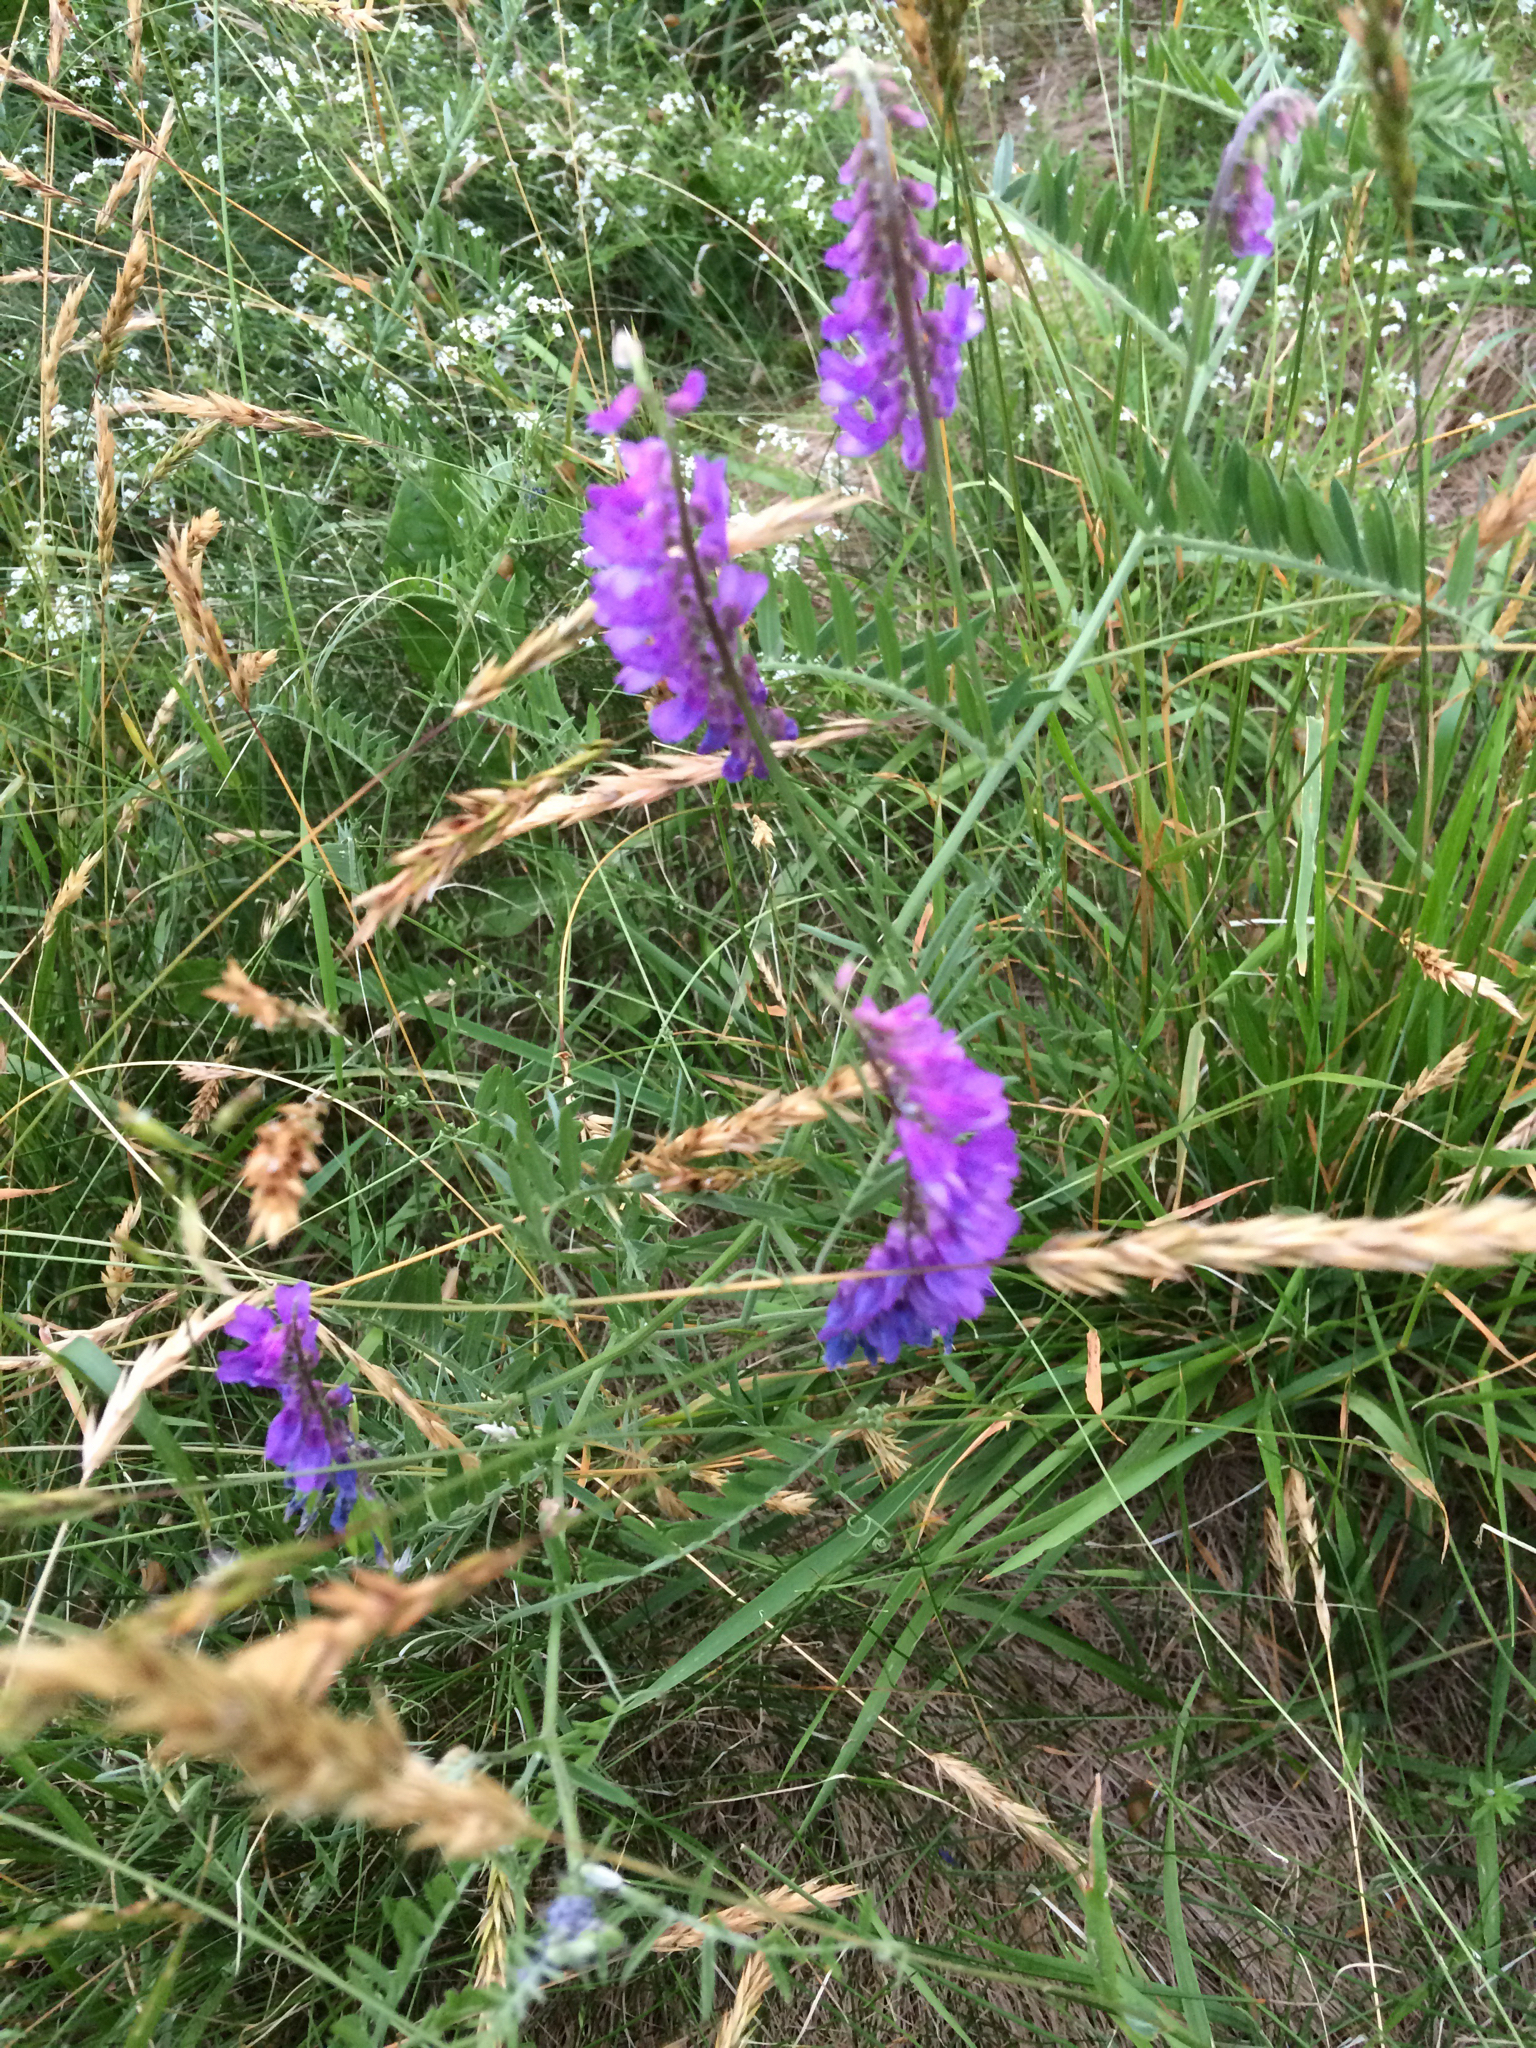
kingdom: Plantae
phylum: Tracheophyta
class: Magnoliopsida
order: Fabales
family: Fabaceae
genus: Vicia
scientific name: Vicia cracca
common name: Bird vetch
